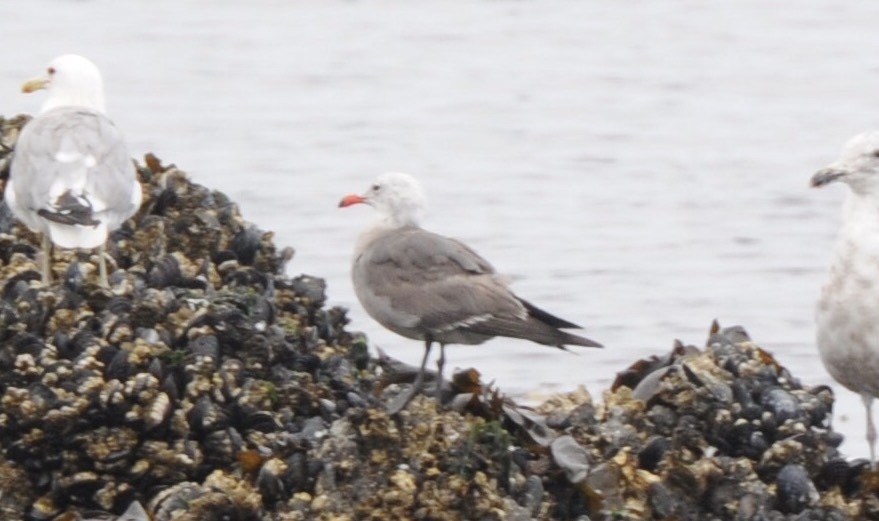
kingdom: Animalia
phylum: Chordata
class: Aves
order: Charadriiformes
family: Laridae
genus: Larus
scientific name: Larus heermanni
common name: Heermann's gull
